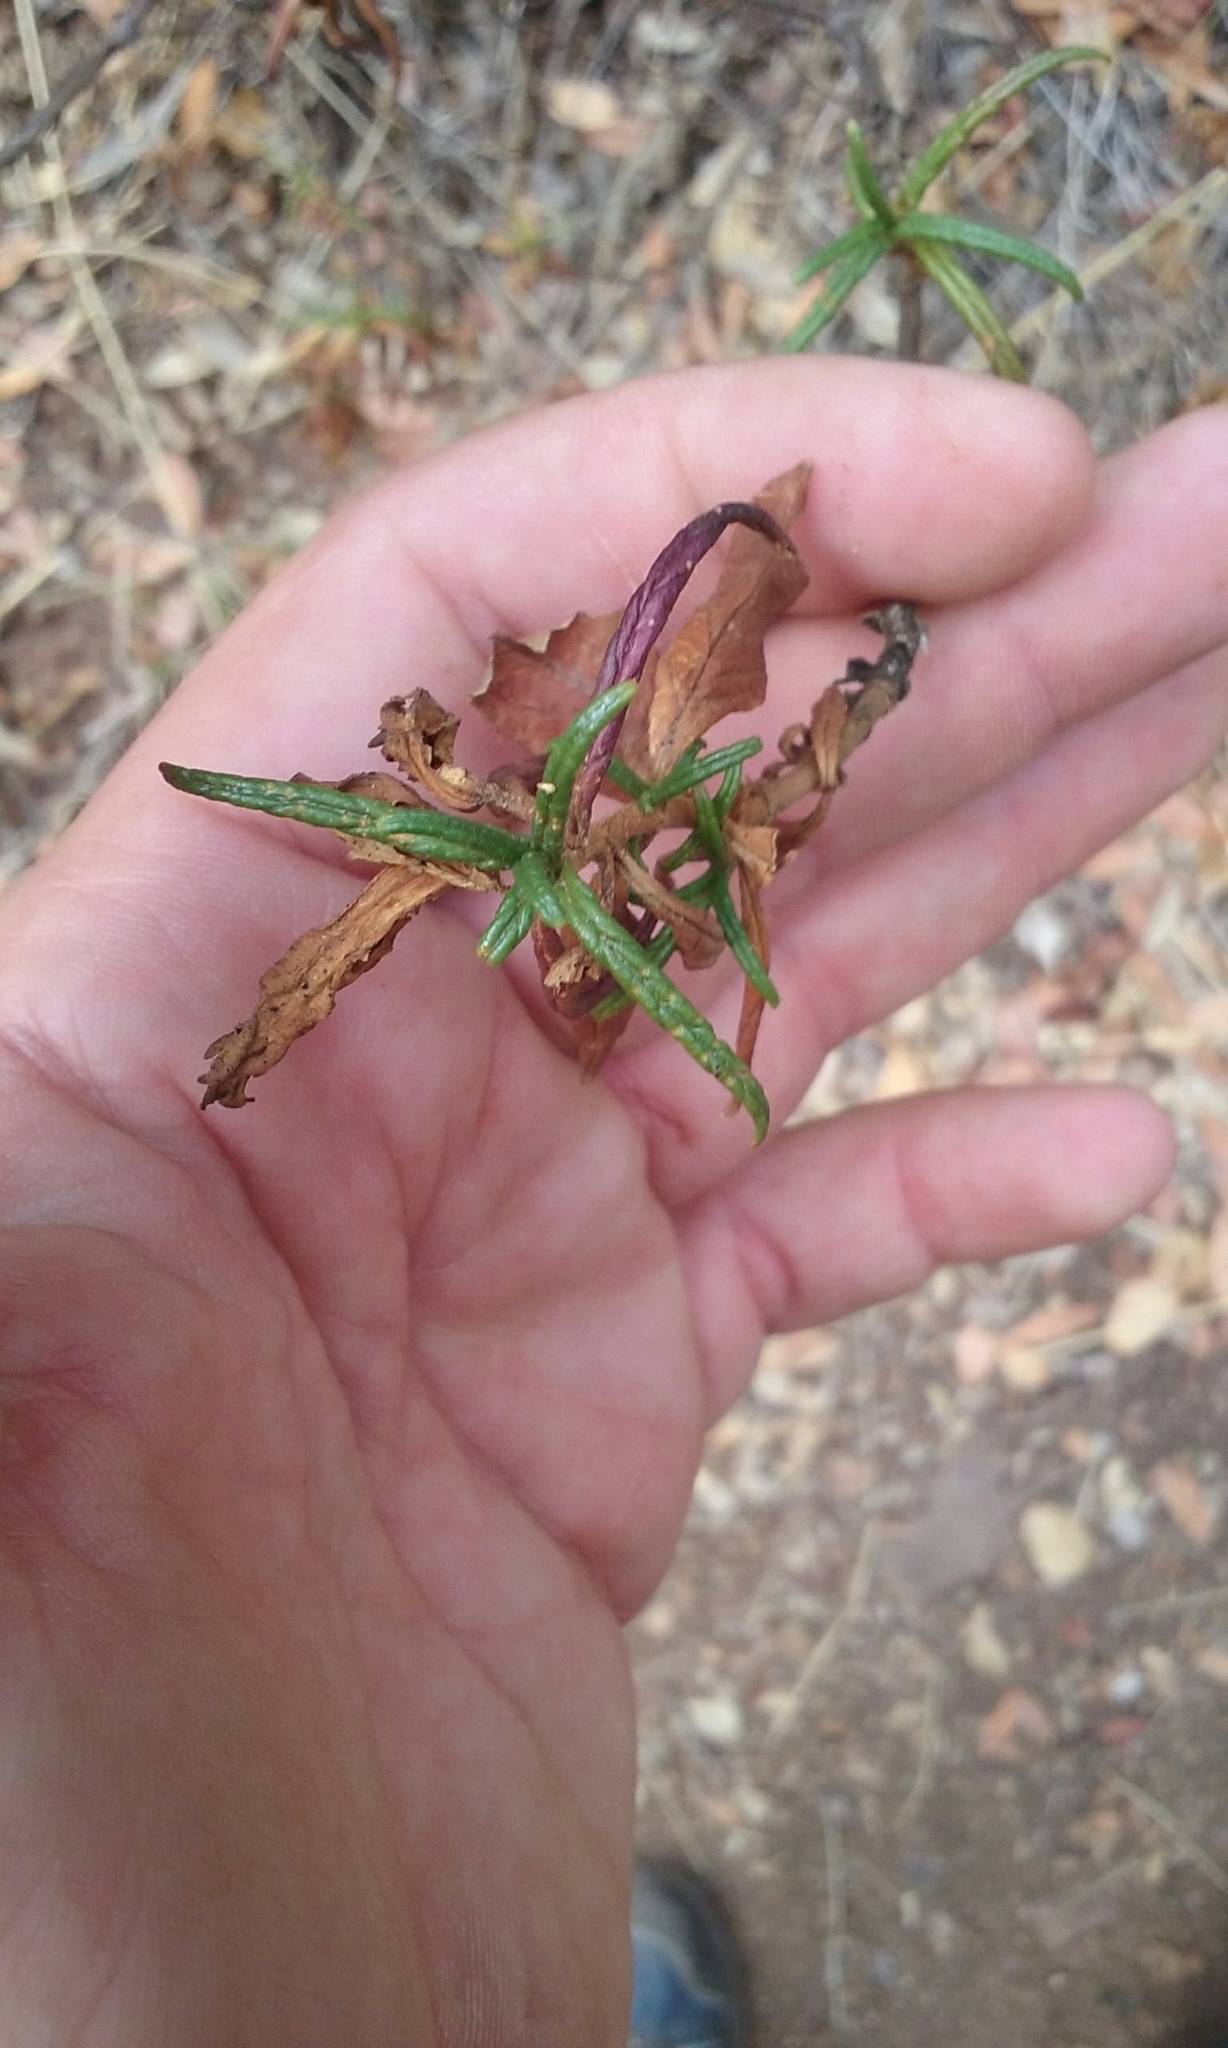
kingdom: Plantae
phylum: Tracheophyta
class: Magnoliopsida
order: Lamiales
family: Phrymaceae
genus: Diplacus
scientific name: Diplacus aurantiacus
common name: Bush monkey-flower
